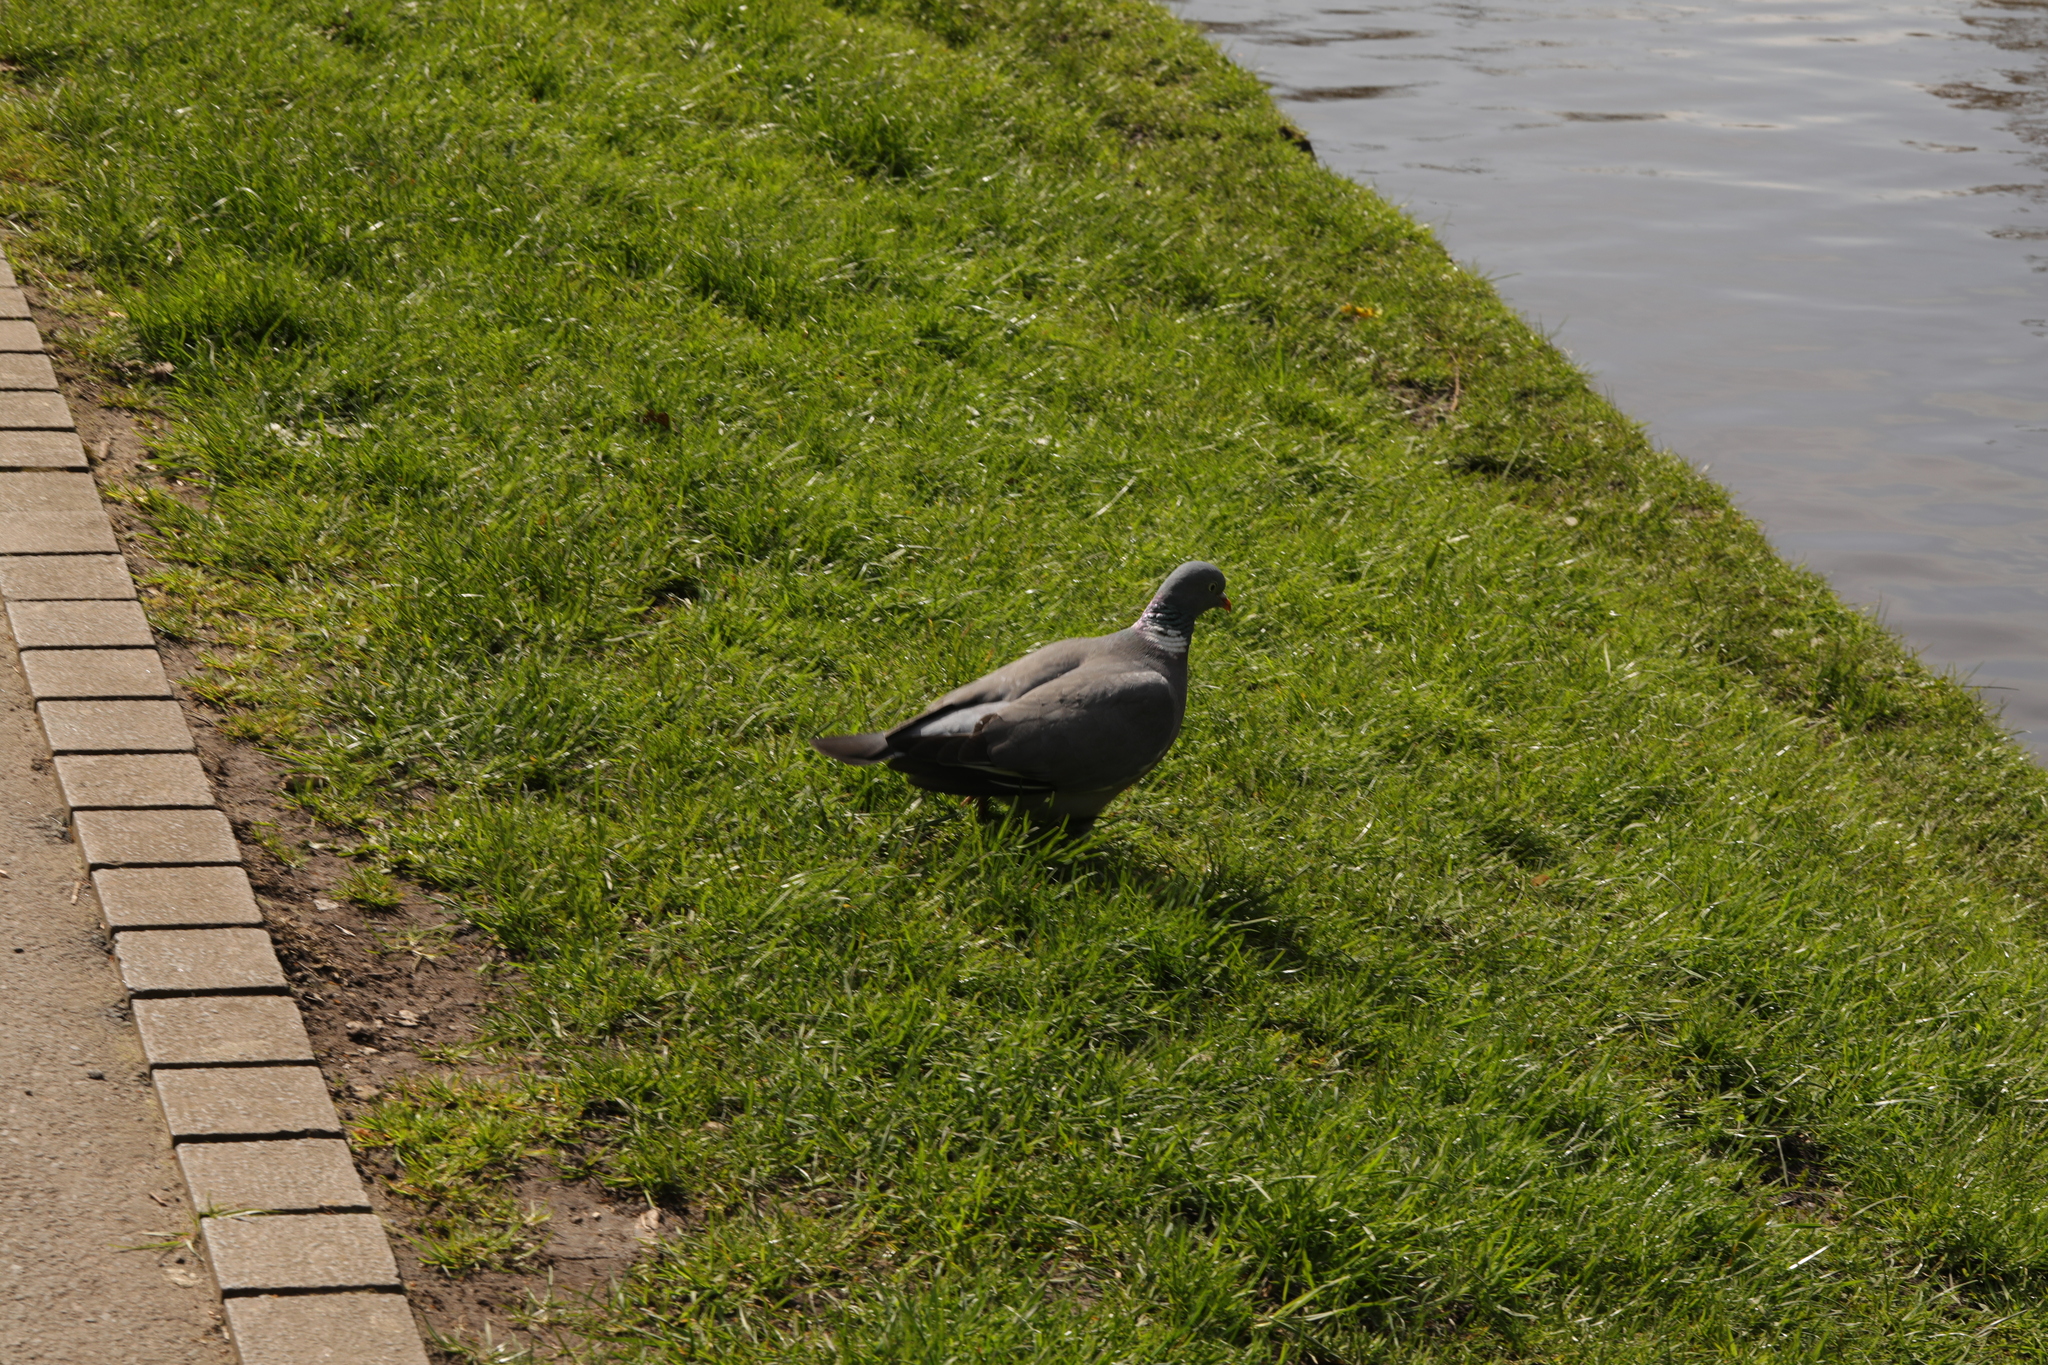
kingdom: Animalia
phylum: Chordata
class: Aves
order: Columbiformes
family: Columbidae
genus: Columba
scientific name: Columba palumbus
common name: Common wood pigeon
